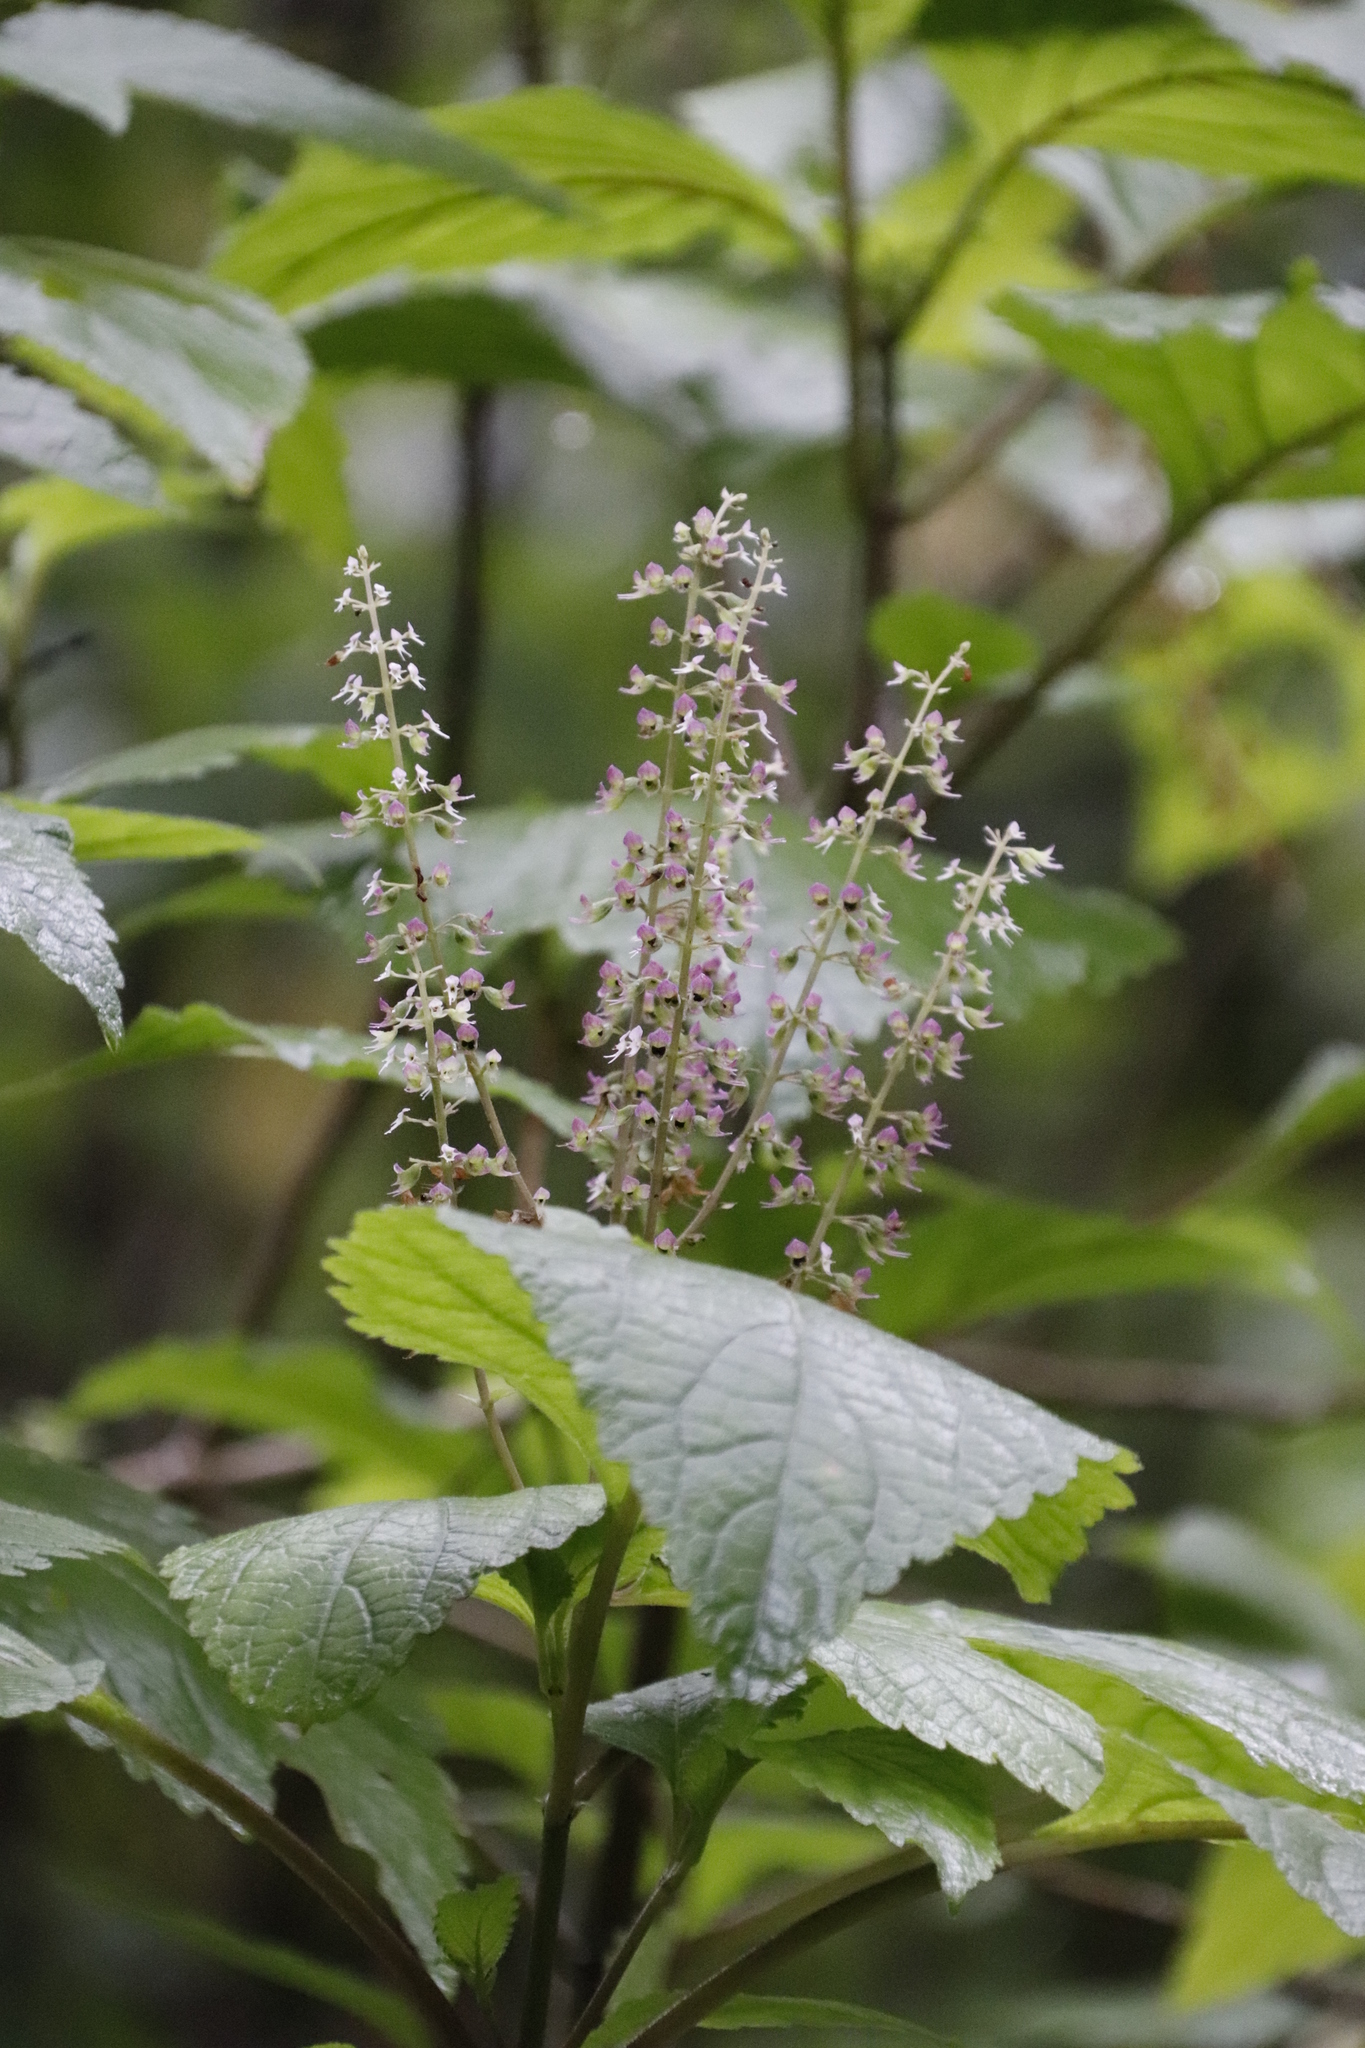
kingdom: Plantae
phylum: Tracheophyta
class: Magnoliopsida
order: Lamiales
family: Lamiaceae
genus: Plectranthus
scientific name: Plectranthus fruticosus
